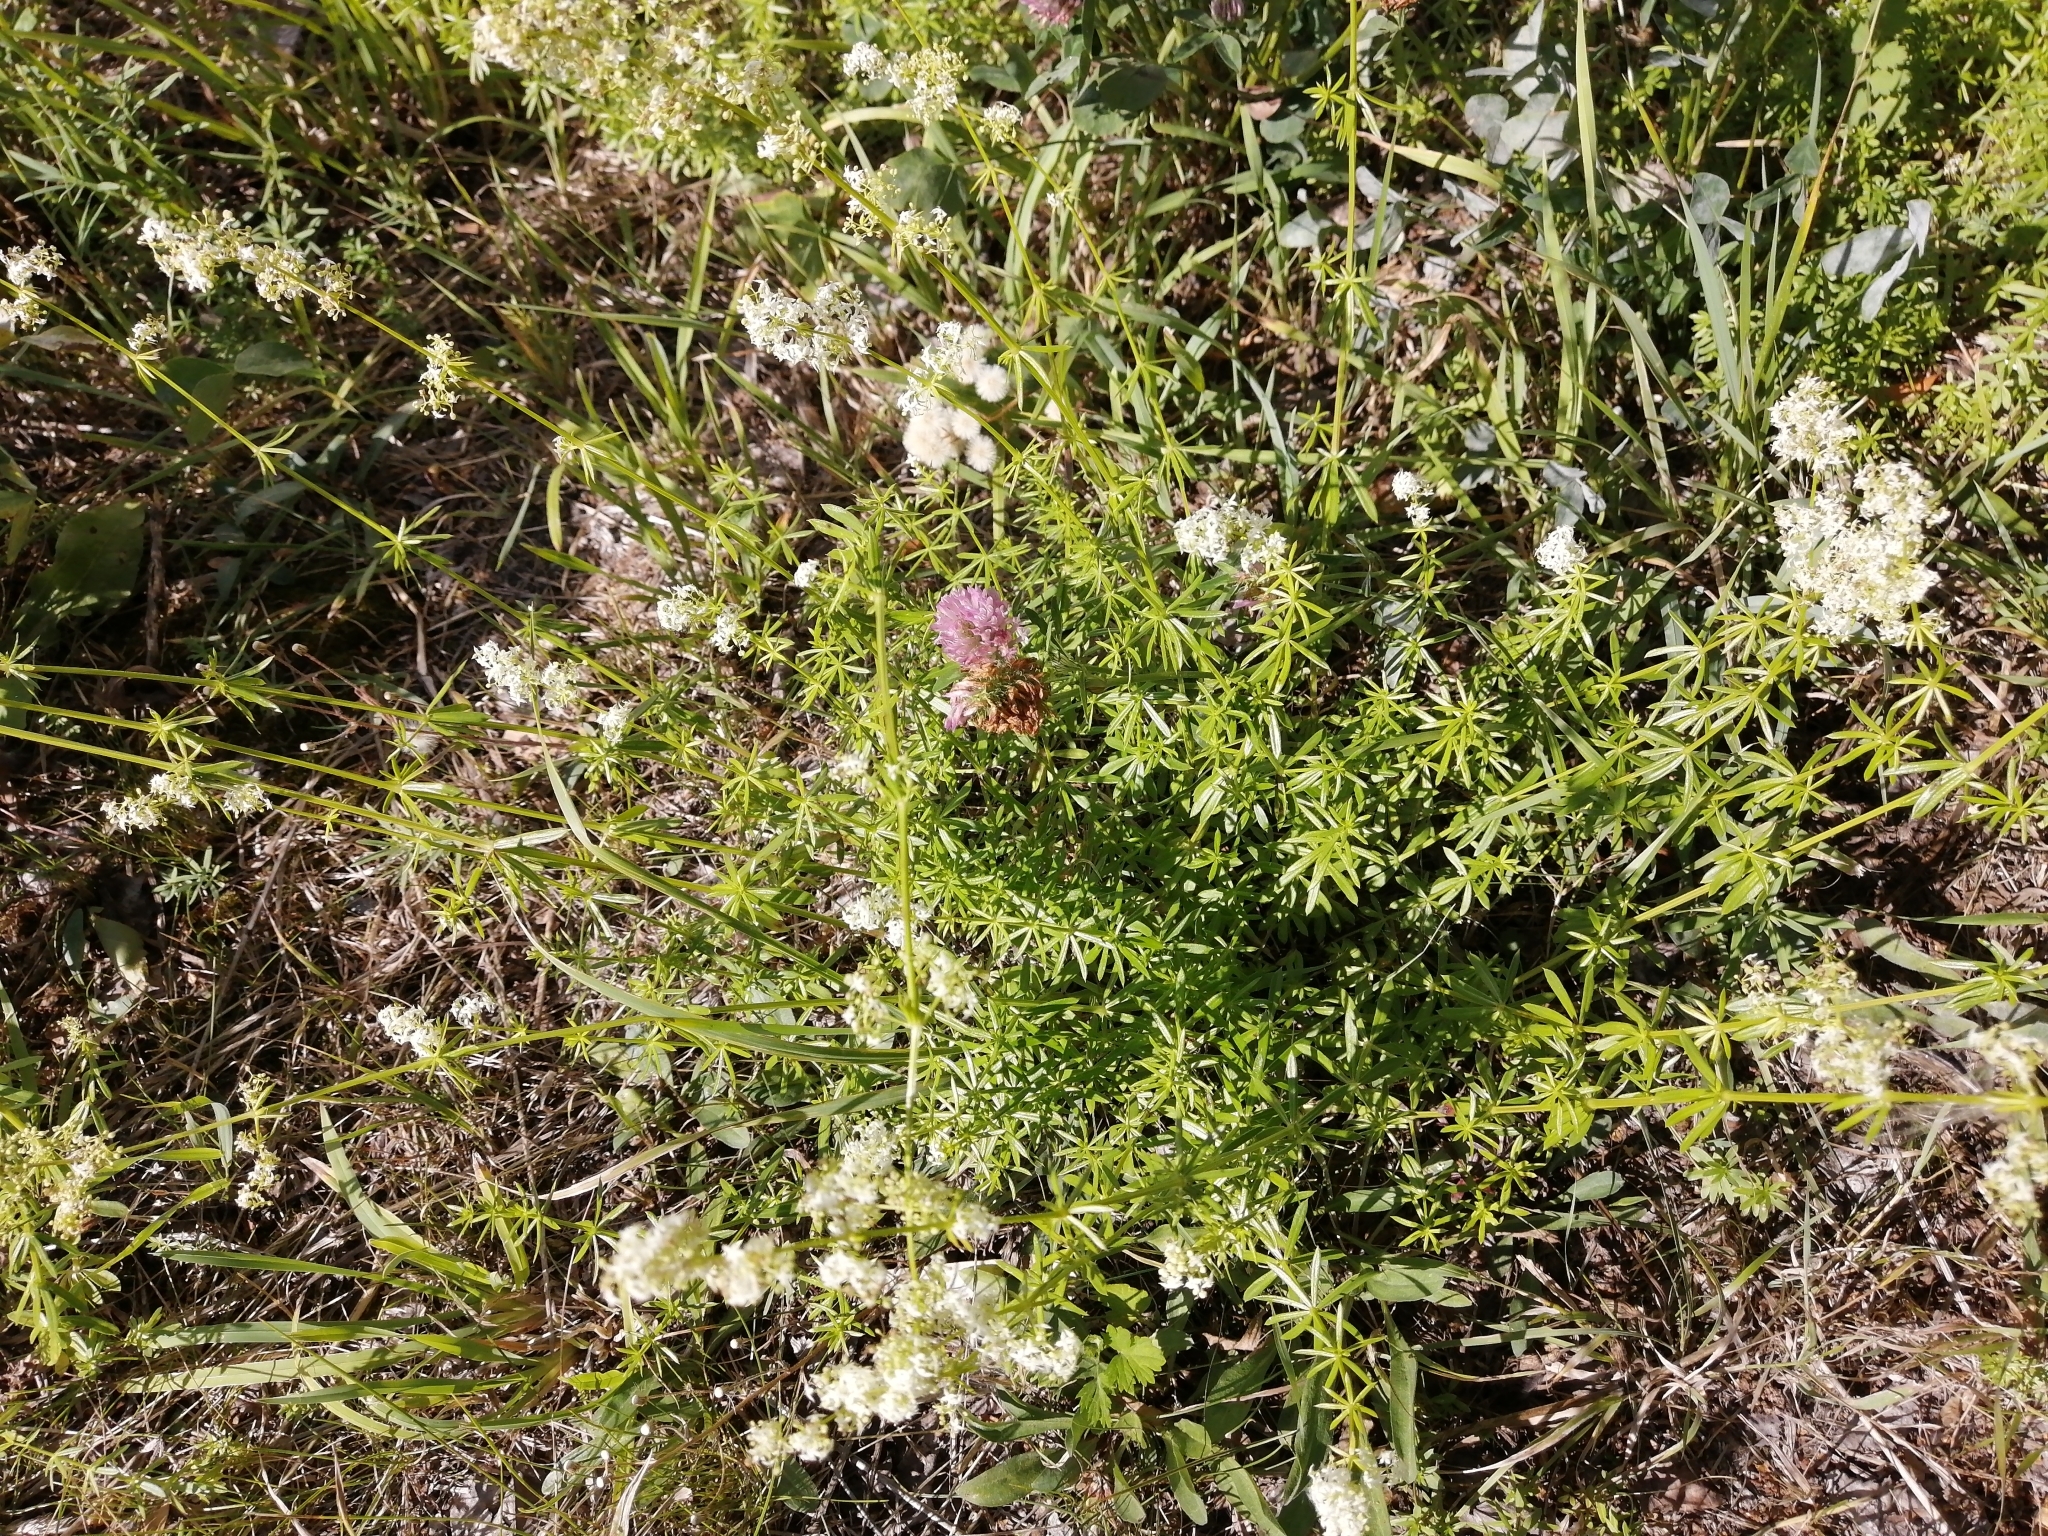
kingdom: Plantae
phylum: Tracheophyta
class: Magnoliopsida
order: Gentianales
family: Rubiaceae
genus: Galium
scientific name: Galium mollugo
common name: Hedge bedstraw
